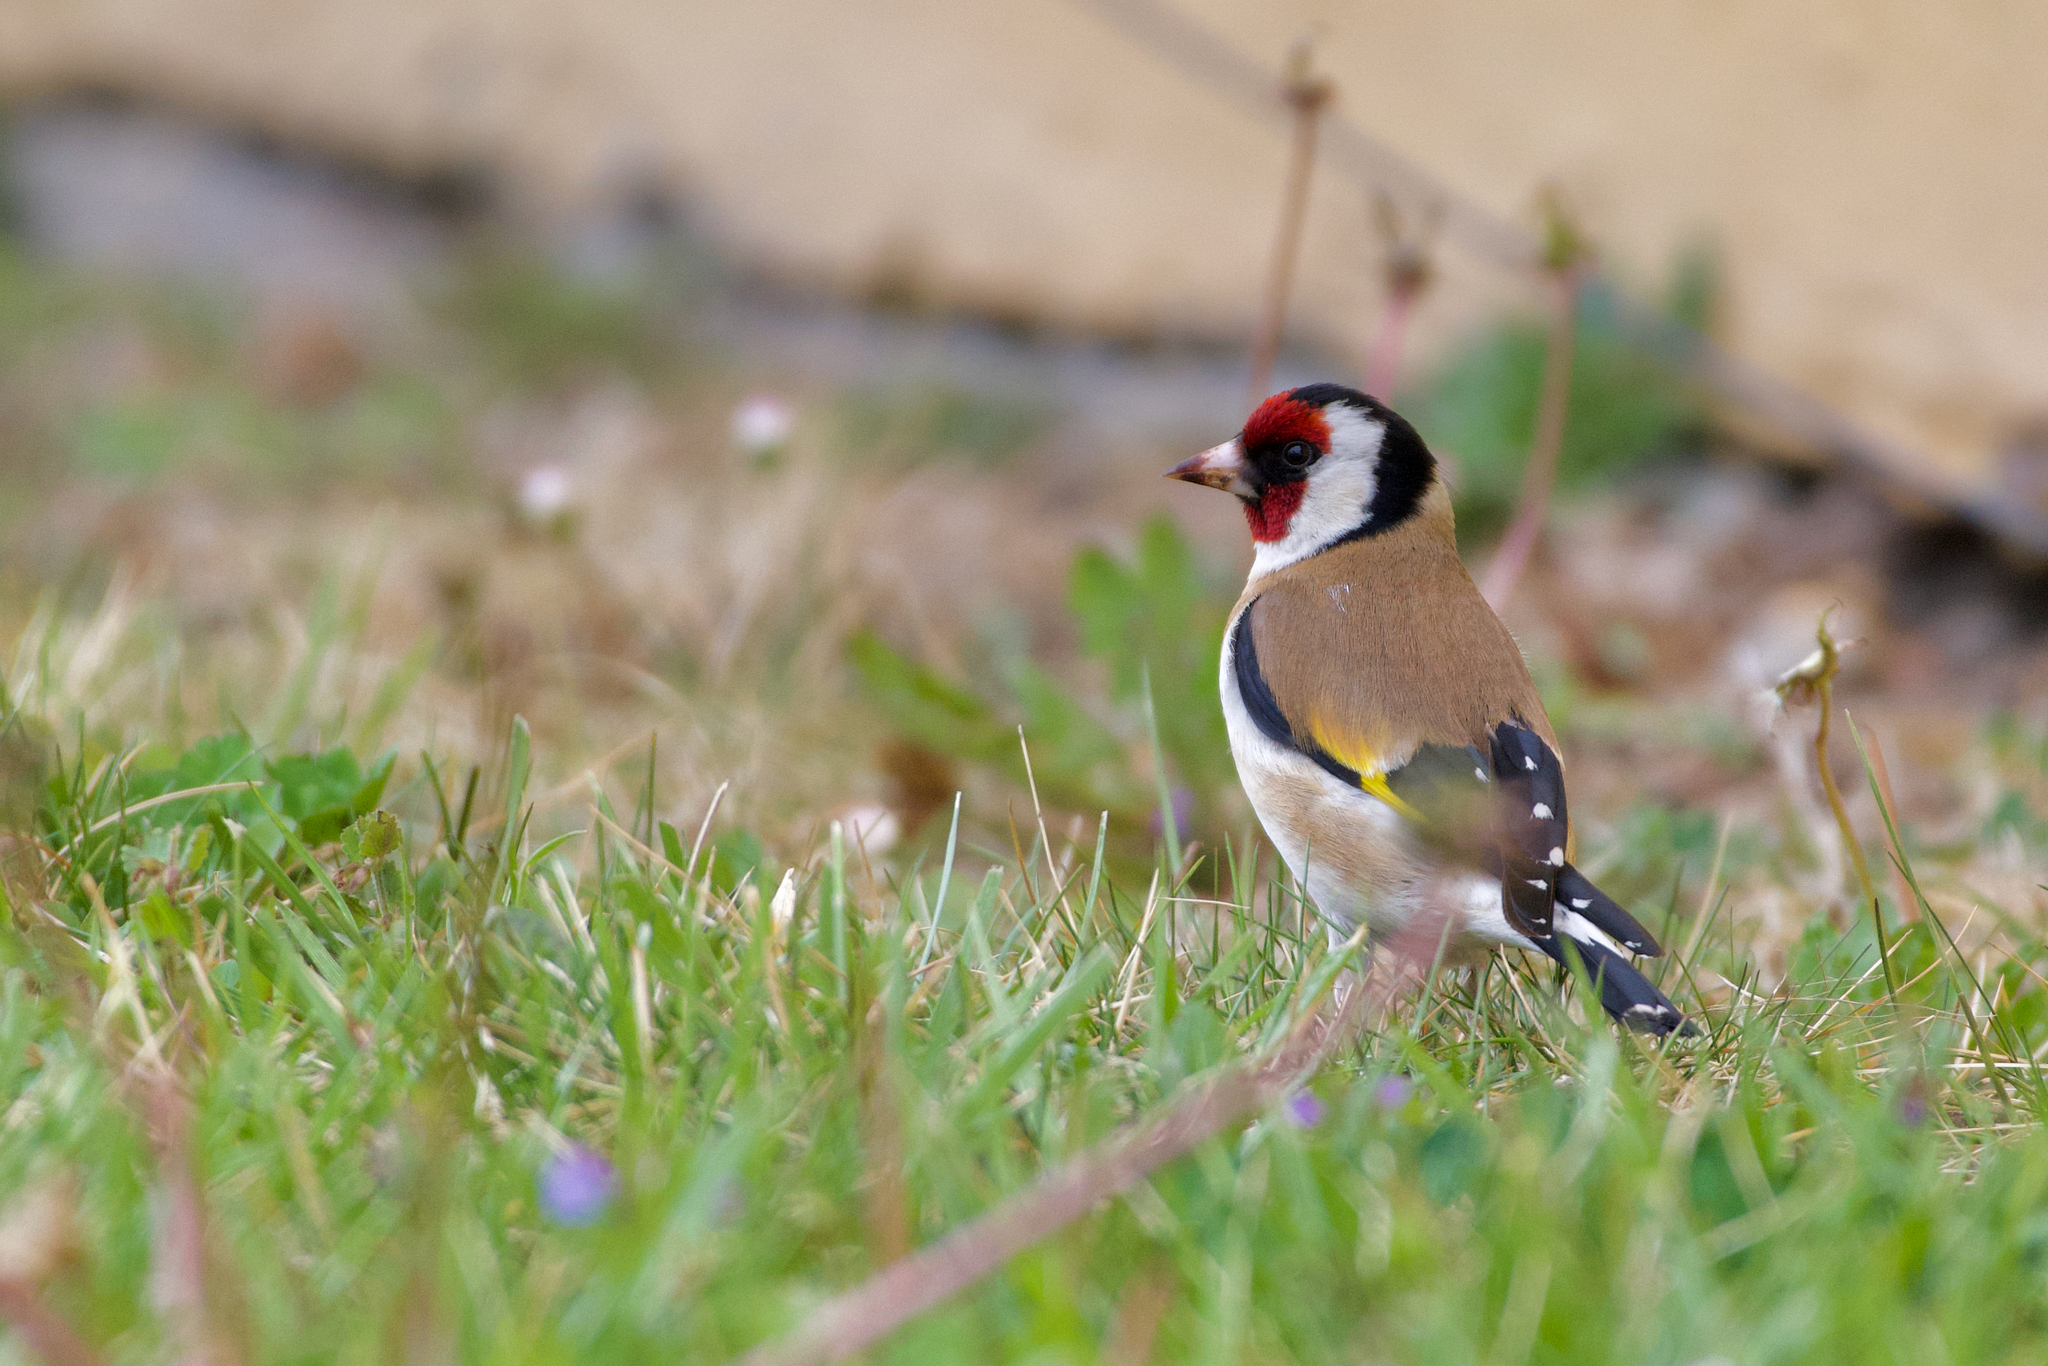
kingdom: Animalia
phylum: Chordata
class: Aves
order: Passeriformes
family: Fringillidae
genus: Carduelis
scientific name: Carduelis carduelis
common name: European goldfinch
